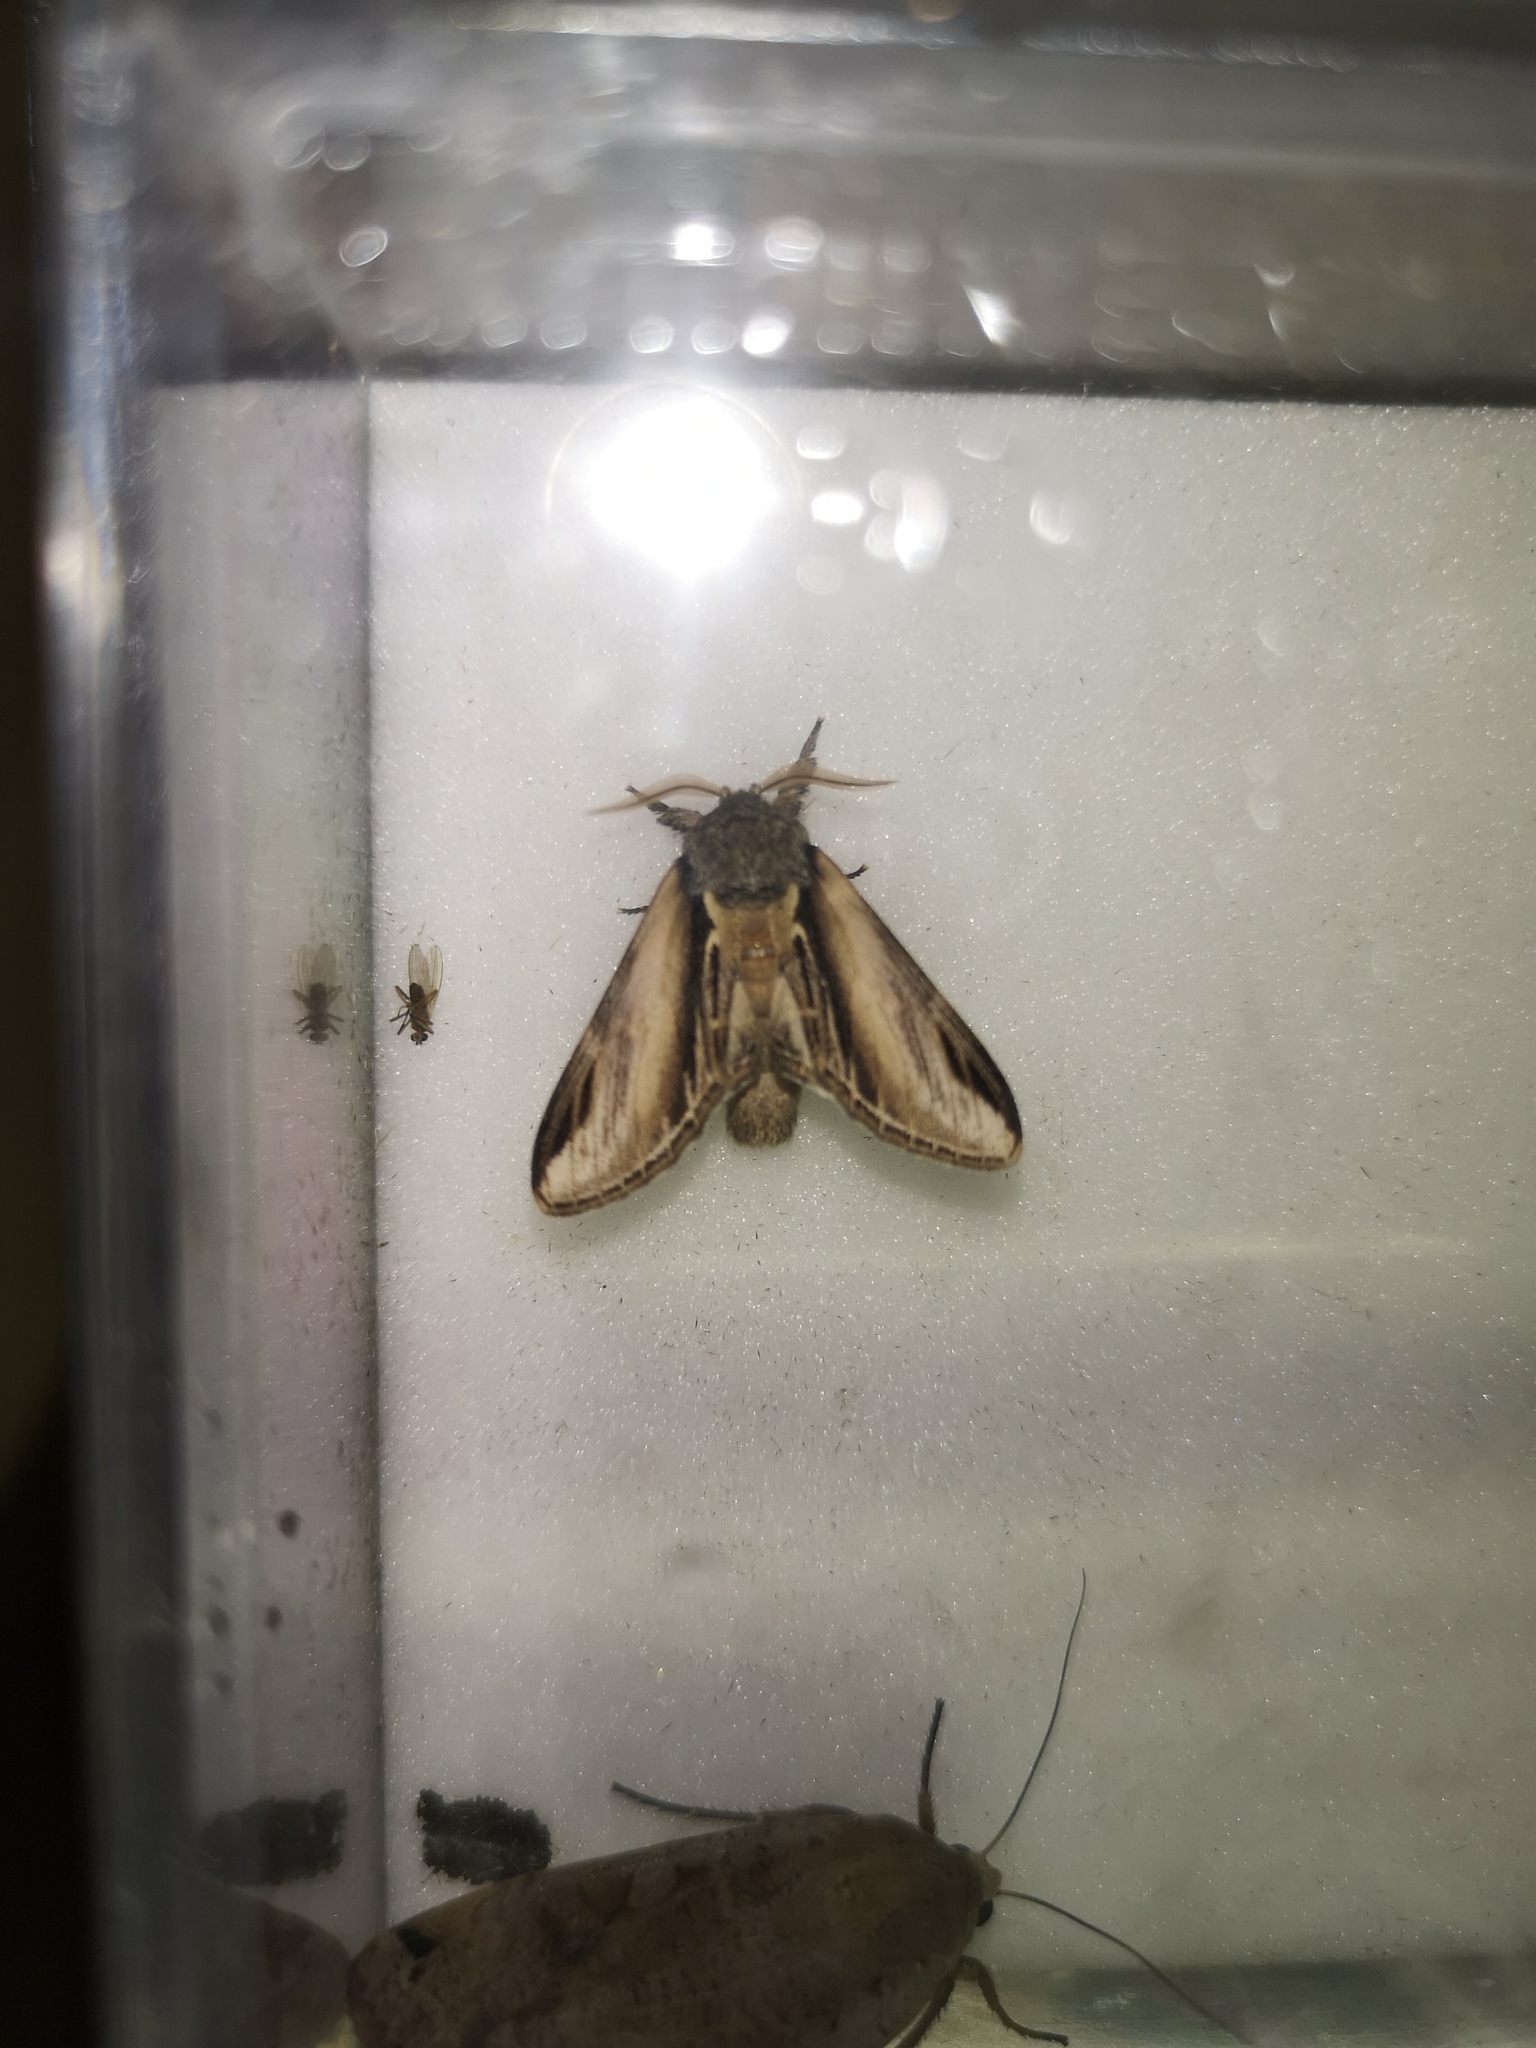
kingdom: Animalia
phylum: Arthropoda
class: Insecta
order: Lepidoptera
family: Notodontidae
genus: Pheosia
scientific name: Pheosia tremula
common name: Swallow prominent
